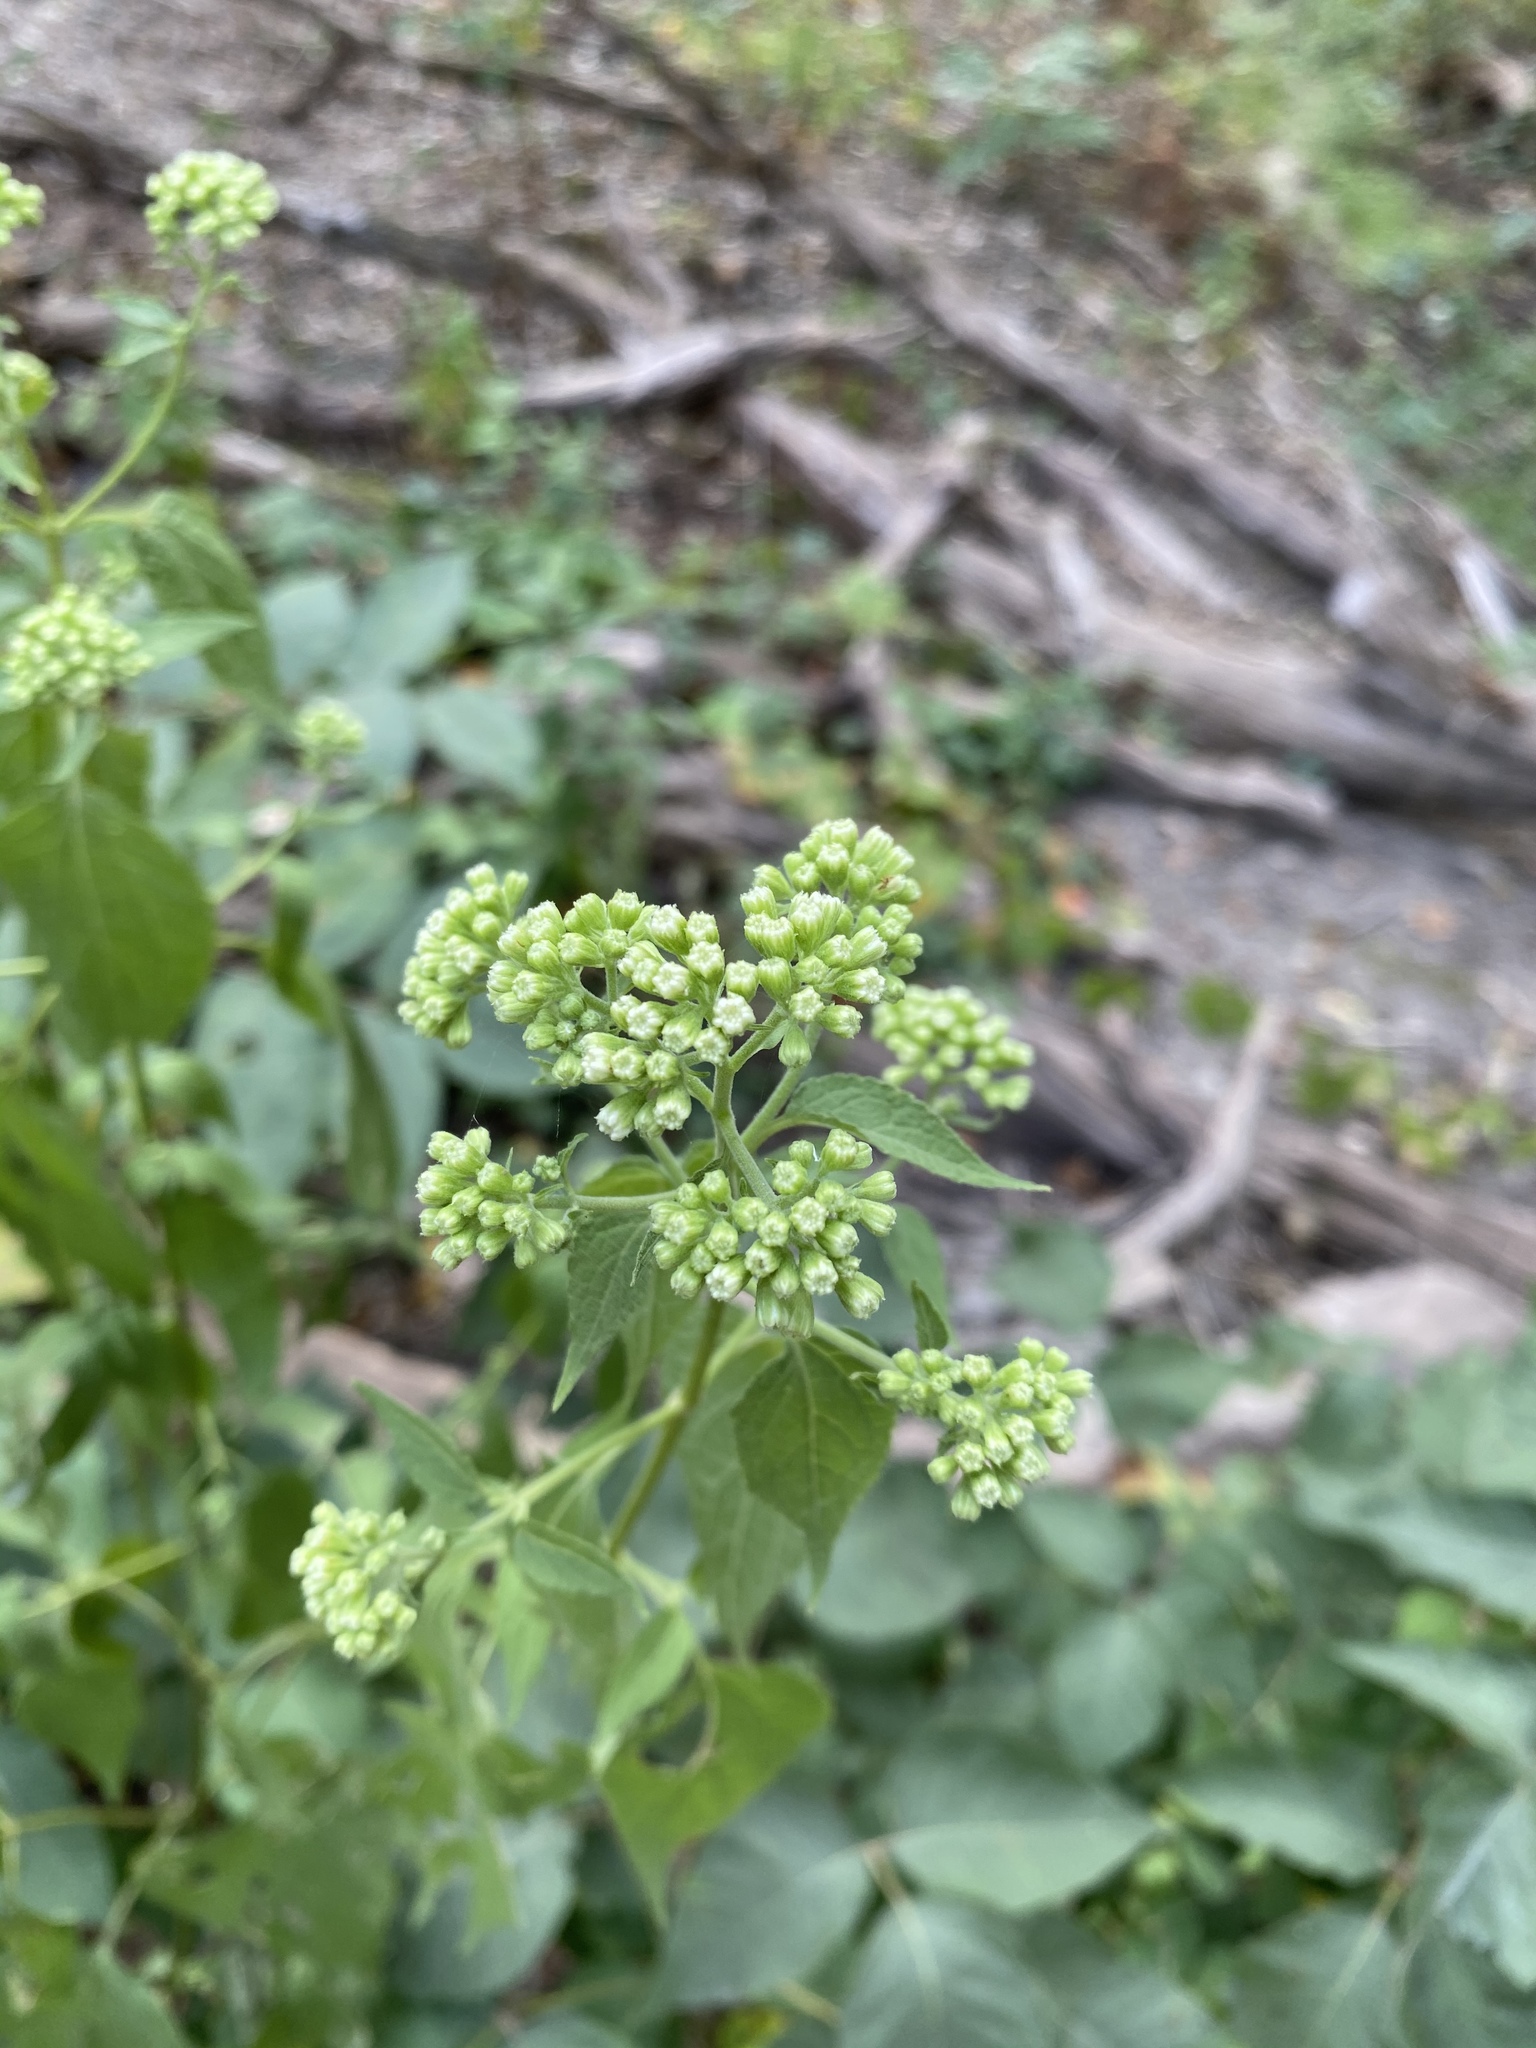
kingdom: Plantae
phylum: Tracheophyta
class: Magnoliopsida
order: Asterales
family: Asteraceae
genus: Ageratina
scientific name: Ageratina altissima
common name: White snakeroot
